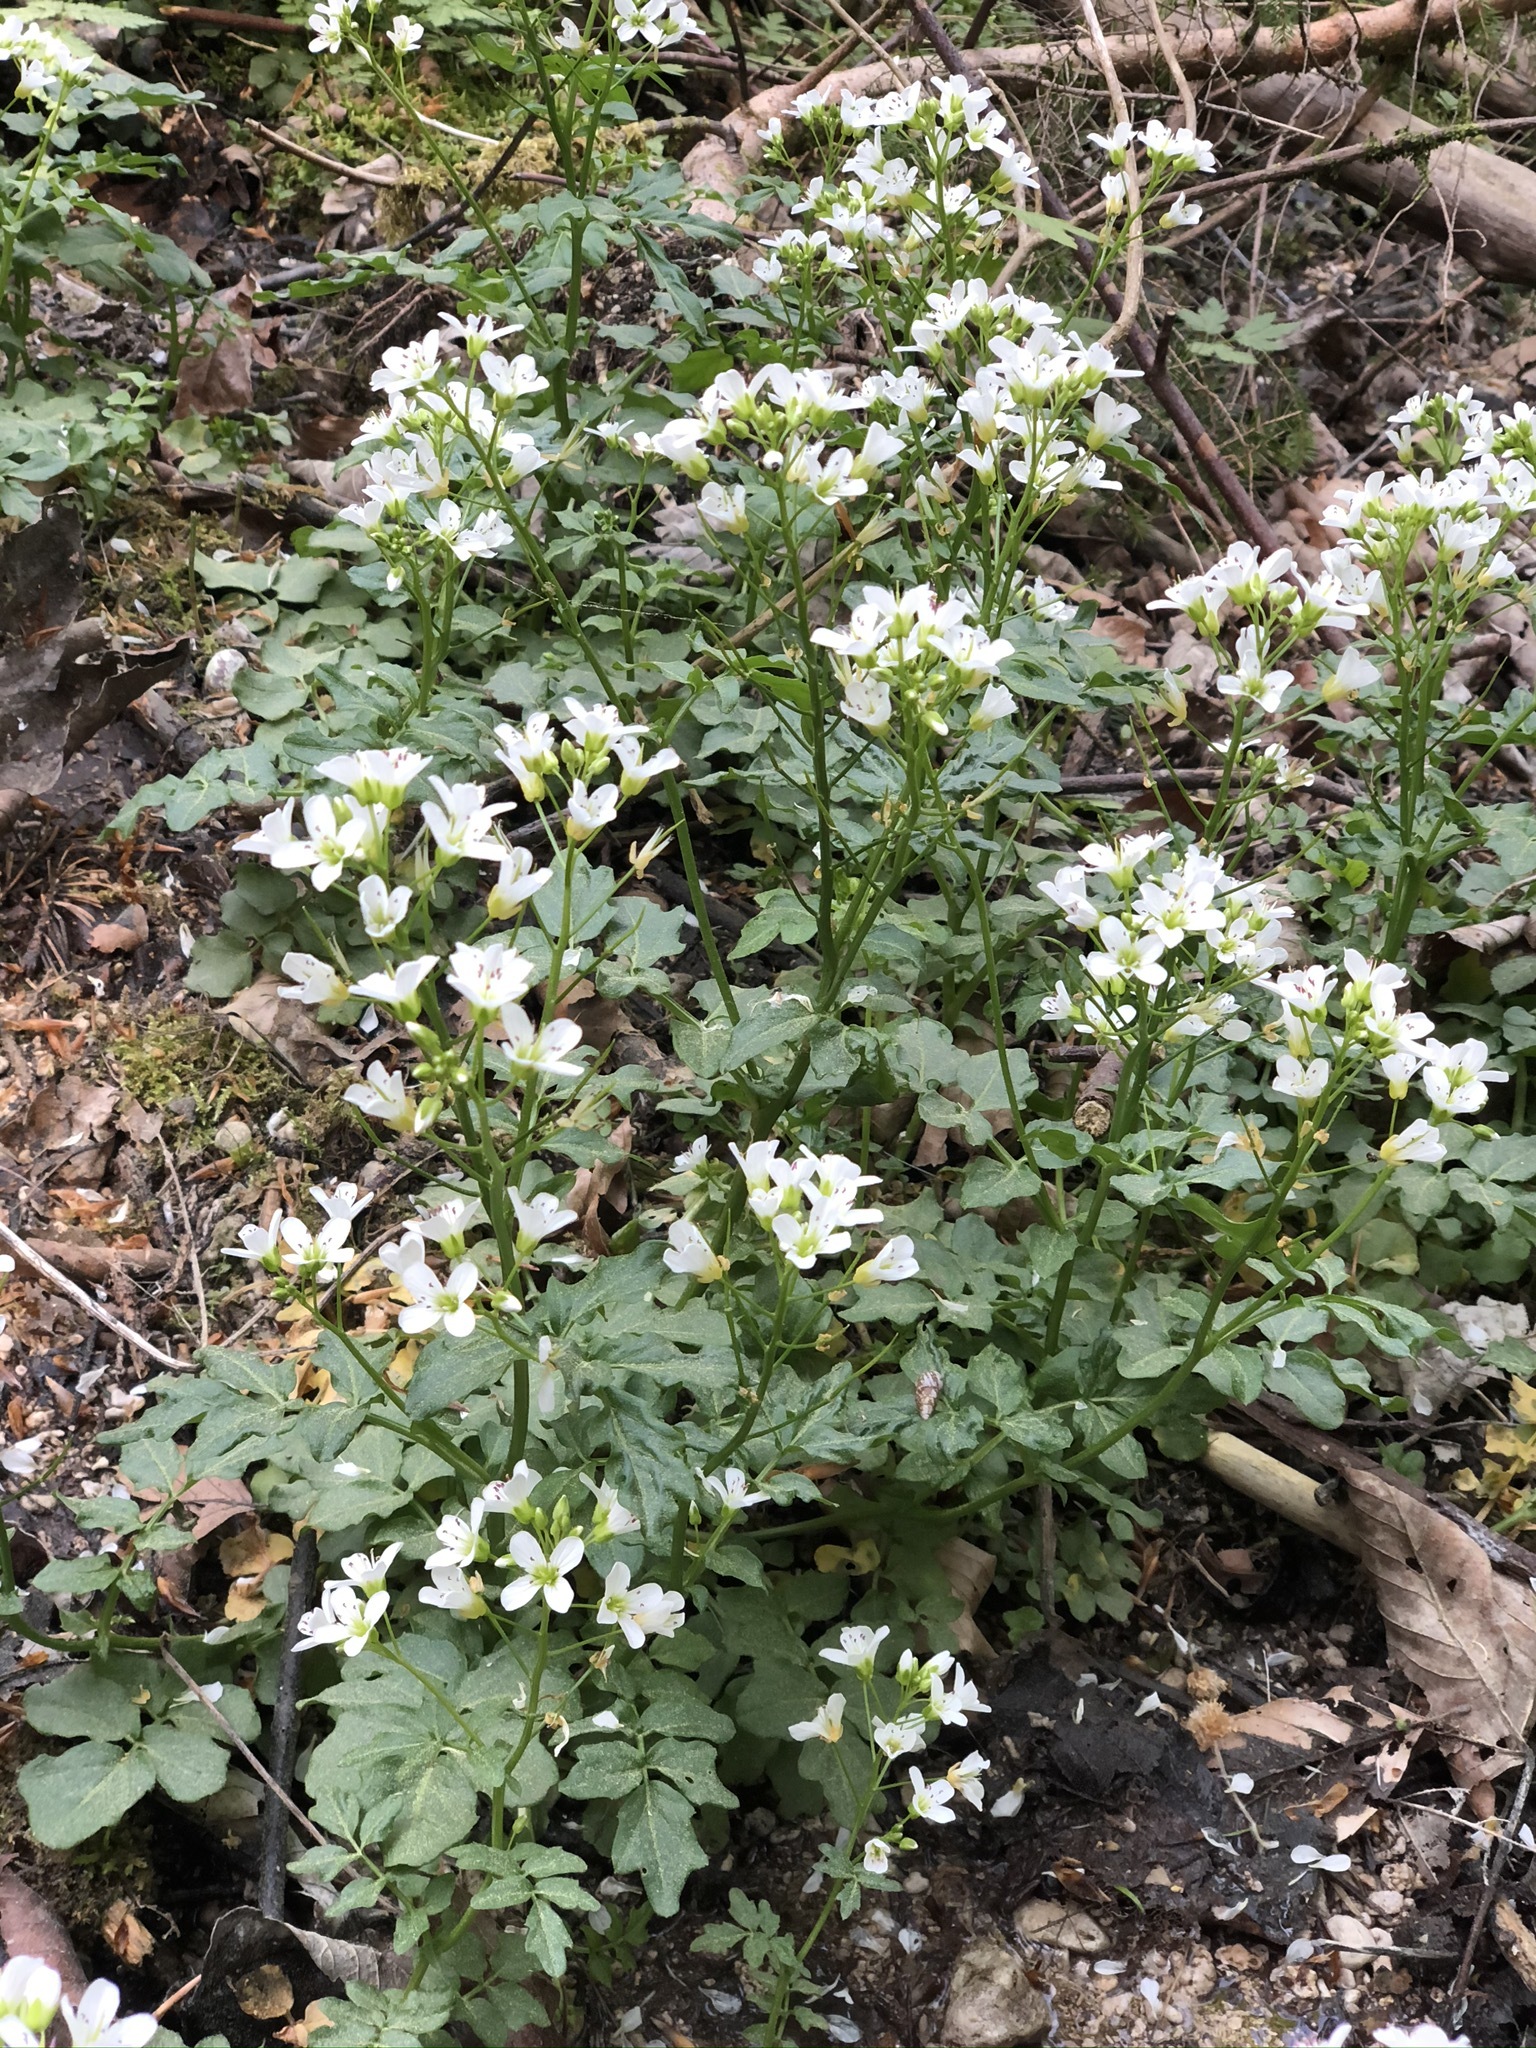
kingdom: Plantae
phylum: Tracheophyta
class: Magnoliopsida
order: Brassicales
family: Brassicaceae
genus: Cardamine
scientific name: Cardamine amara
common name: Large bitter-cress
